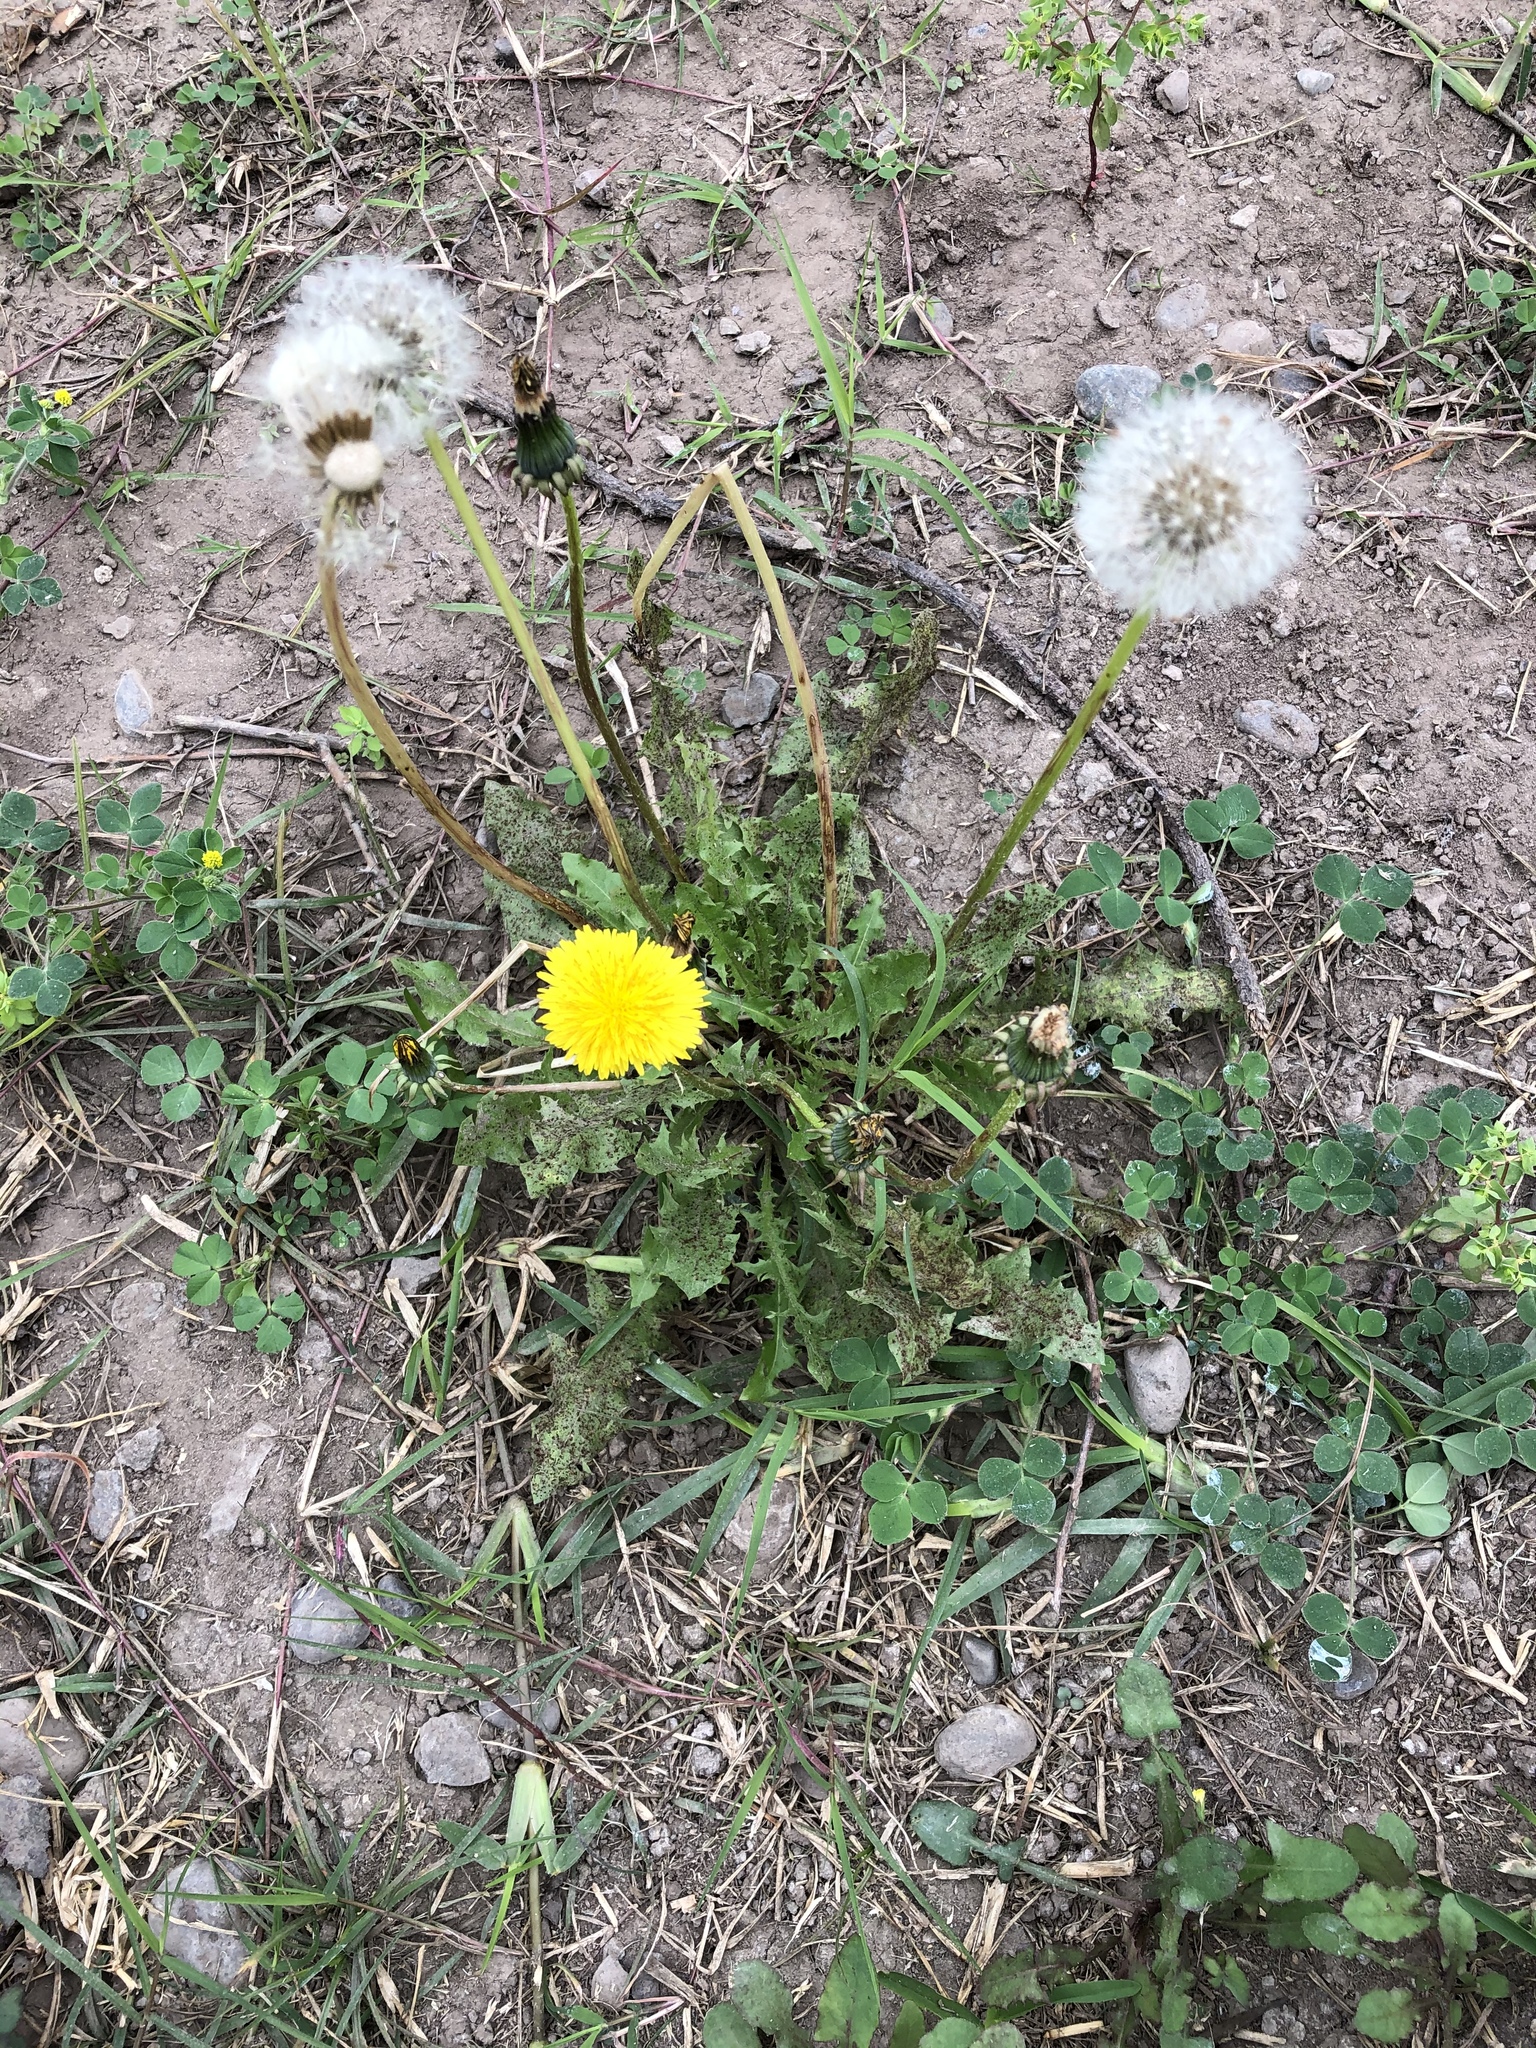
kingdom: Plantae
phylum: Tracheophyta
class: Magnoliopsida
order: Asterales
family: Asteraceae
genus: Taraxacum
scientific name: Taraxacum officinale
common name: Common dandelion
